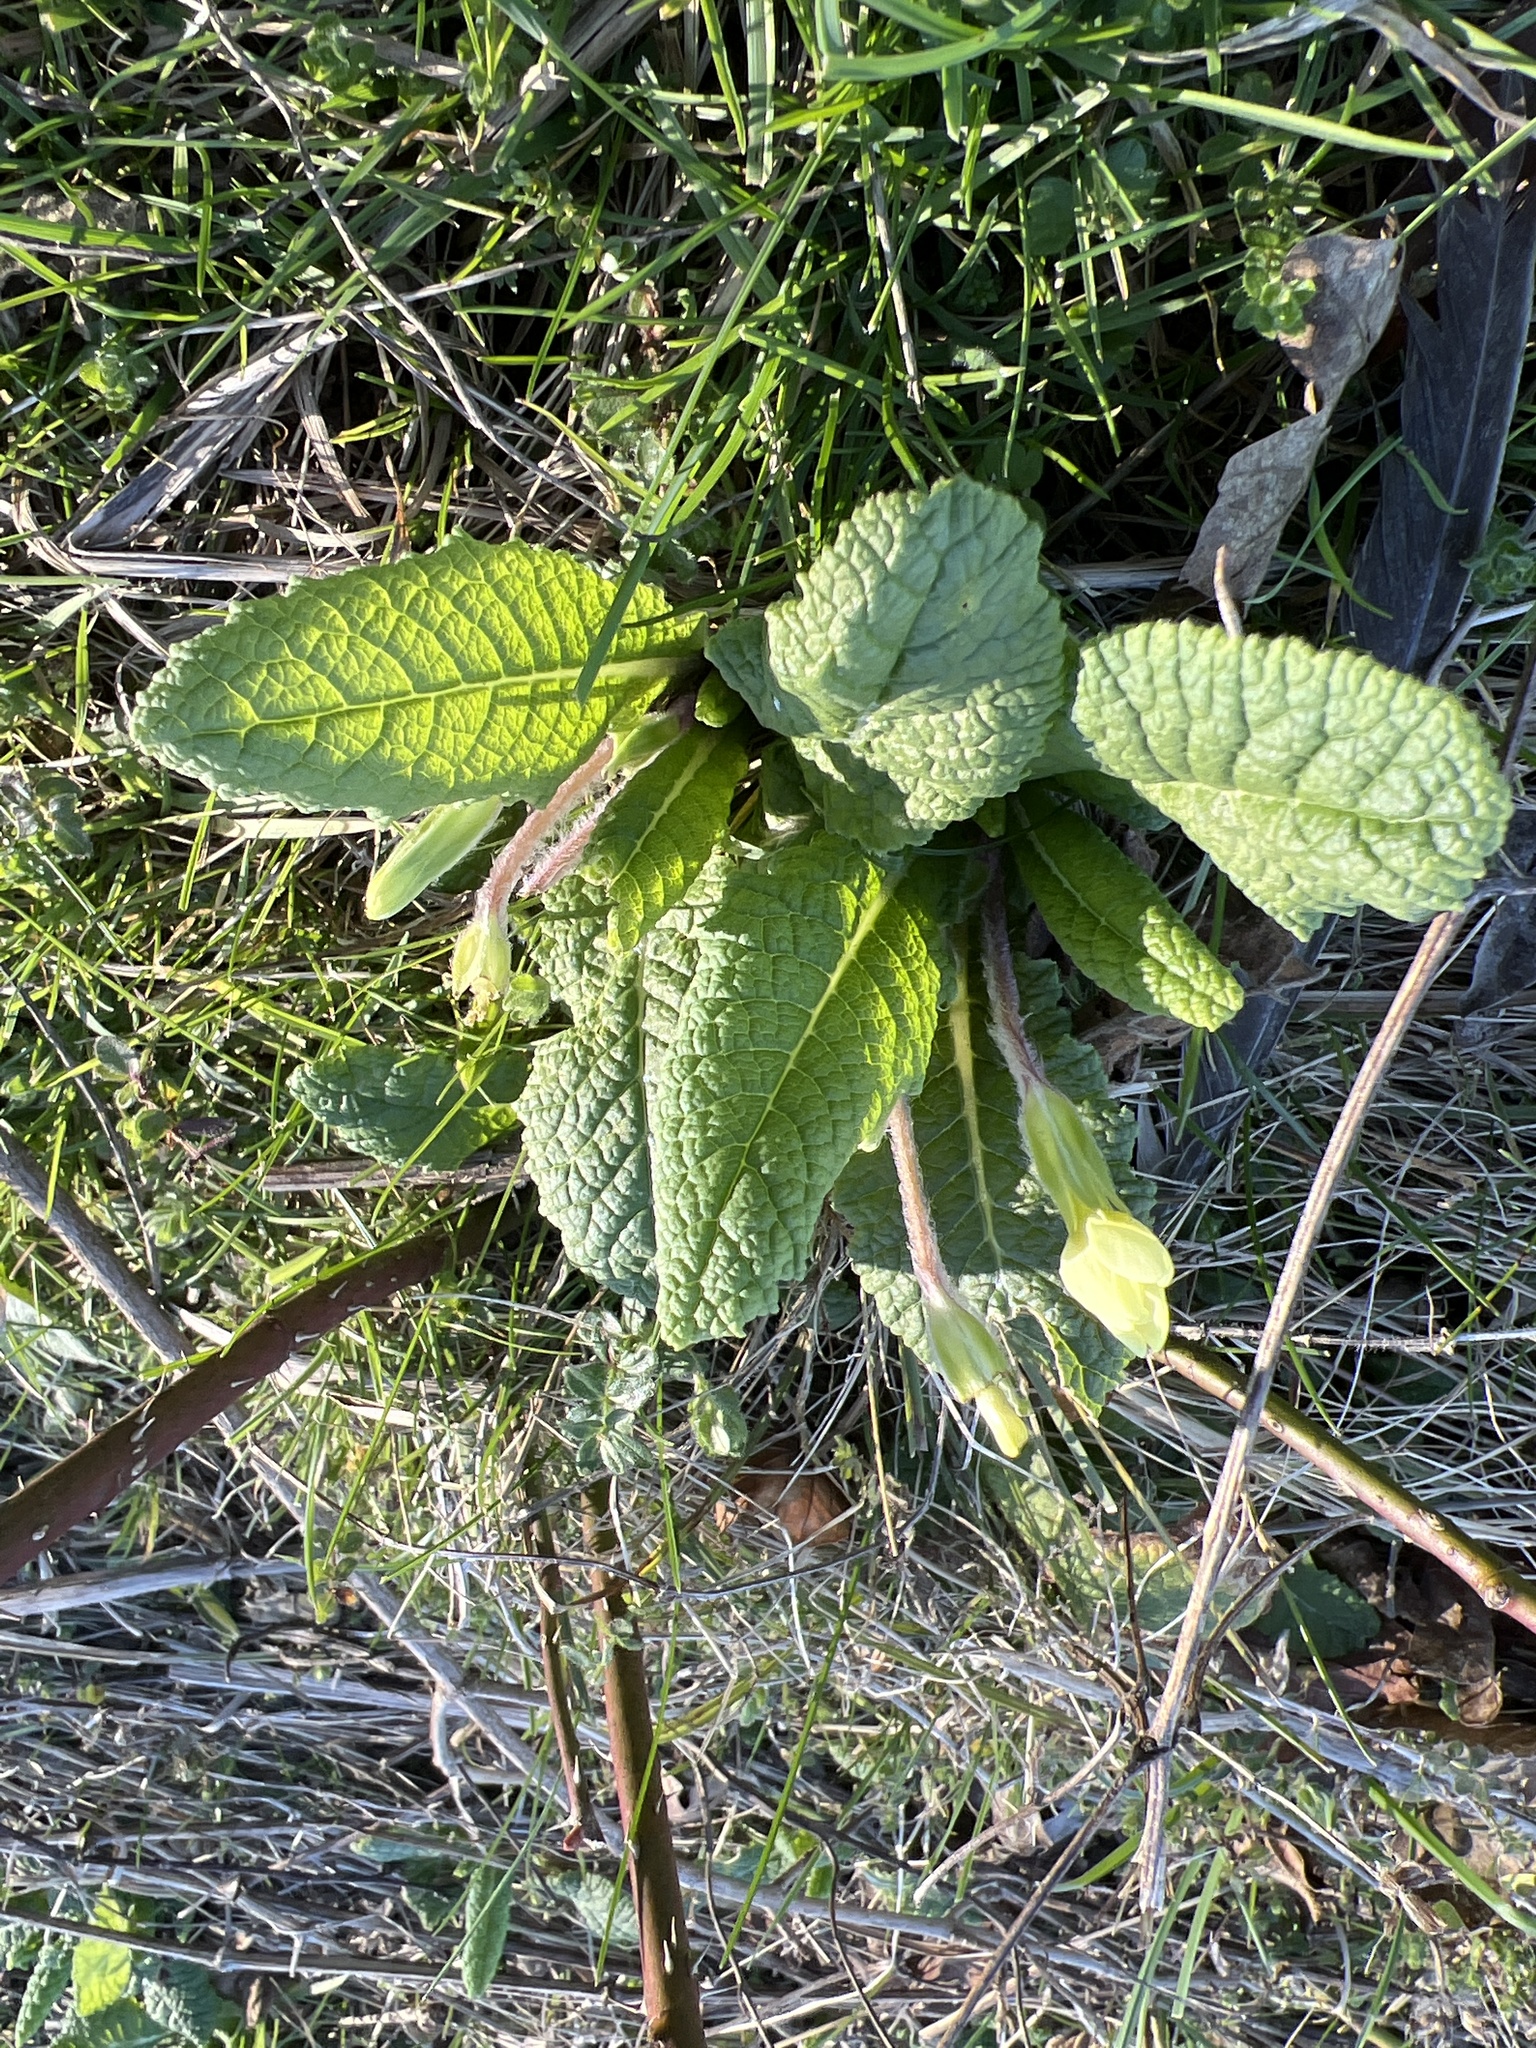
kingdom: Plantae
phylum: Tracheophyta
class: Magnoliopsida
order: Ericales
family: Primulaceae
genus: Primula
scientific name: Primula vulgaris
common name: Primrose
